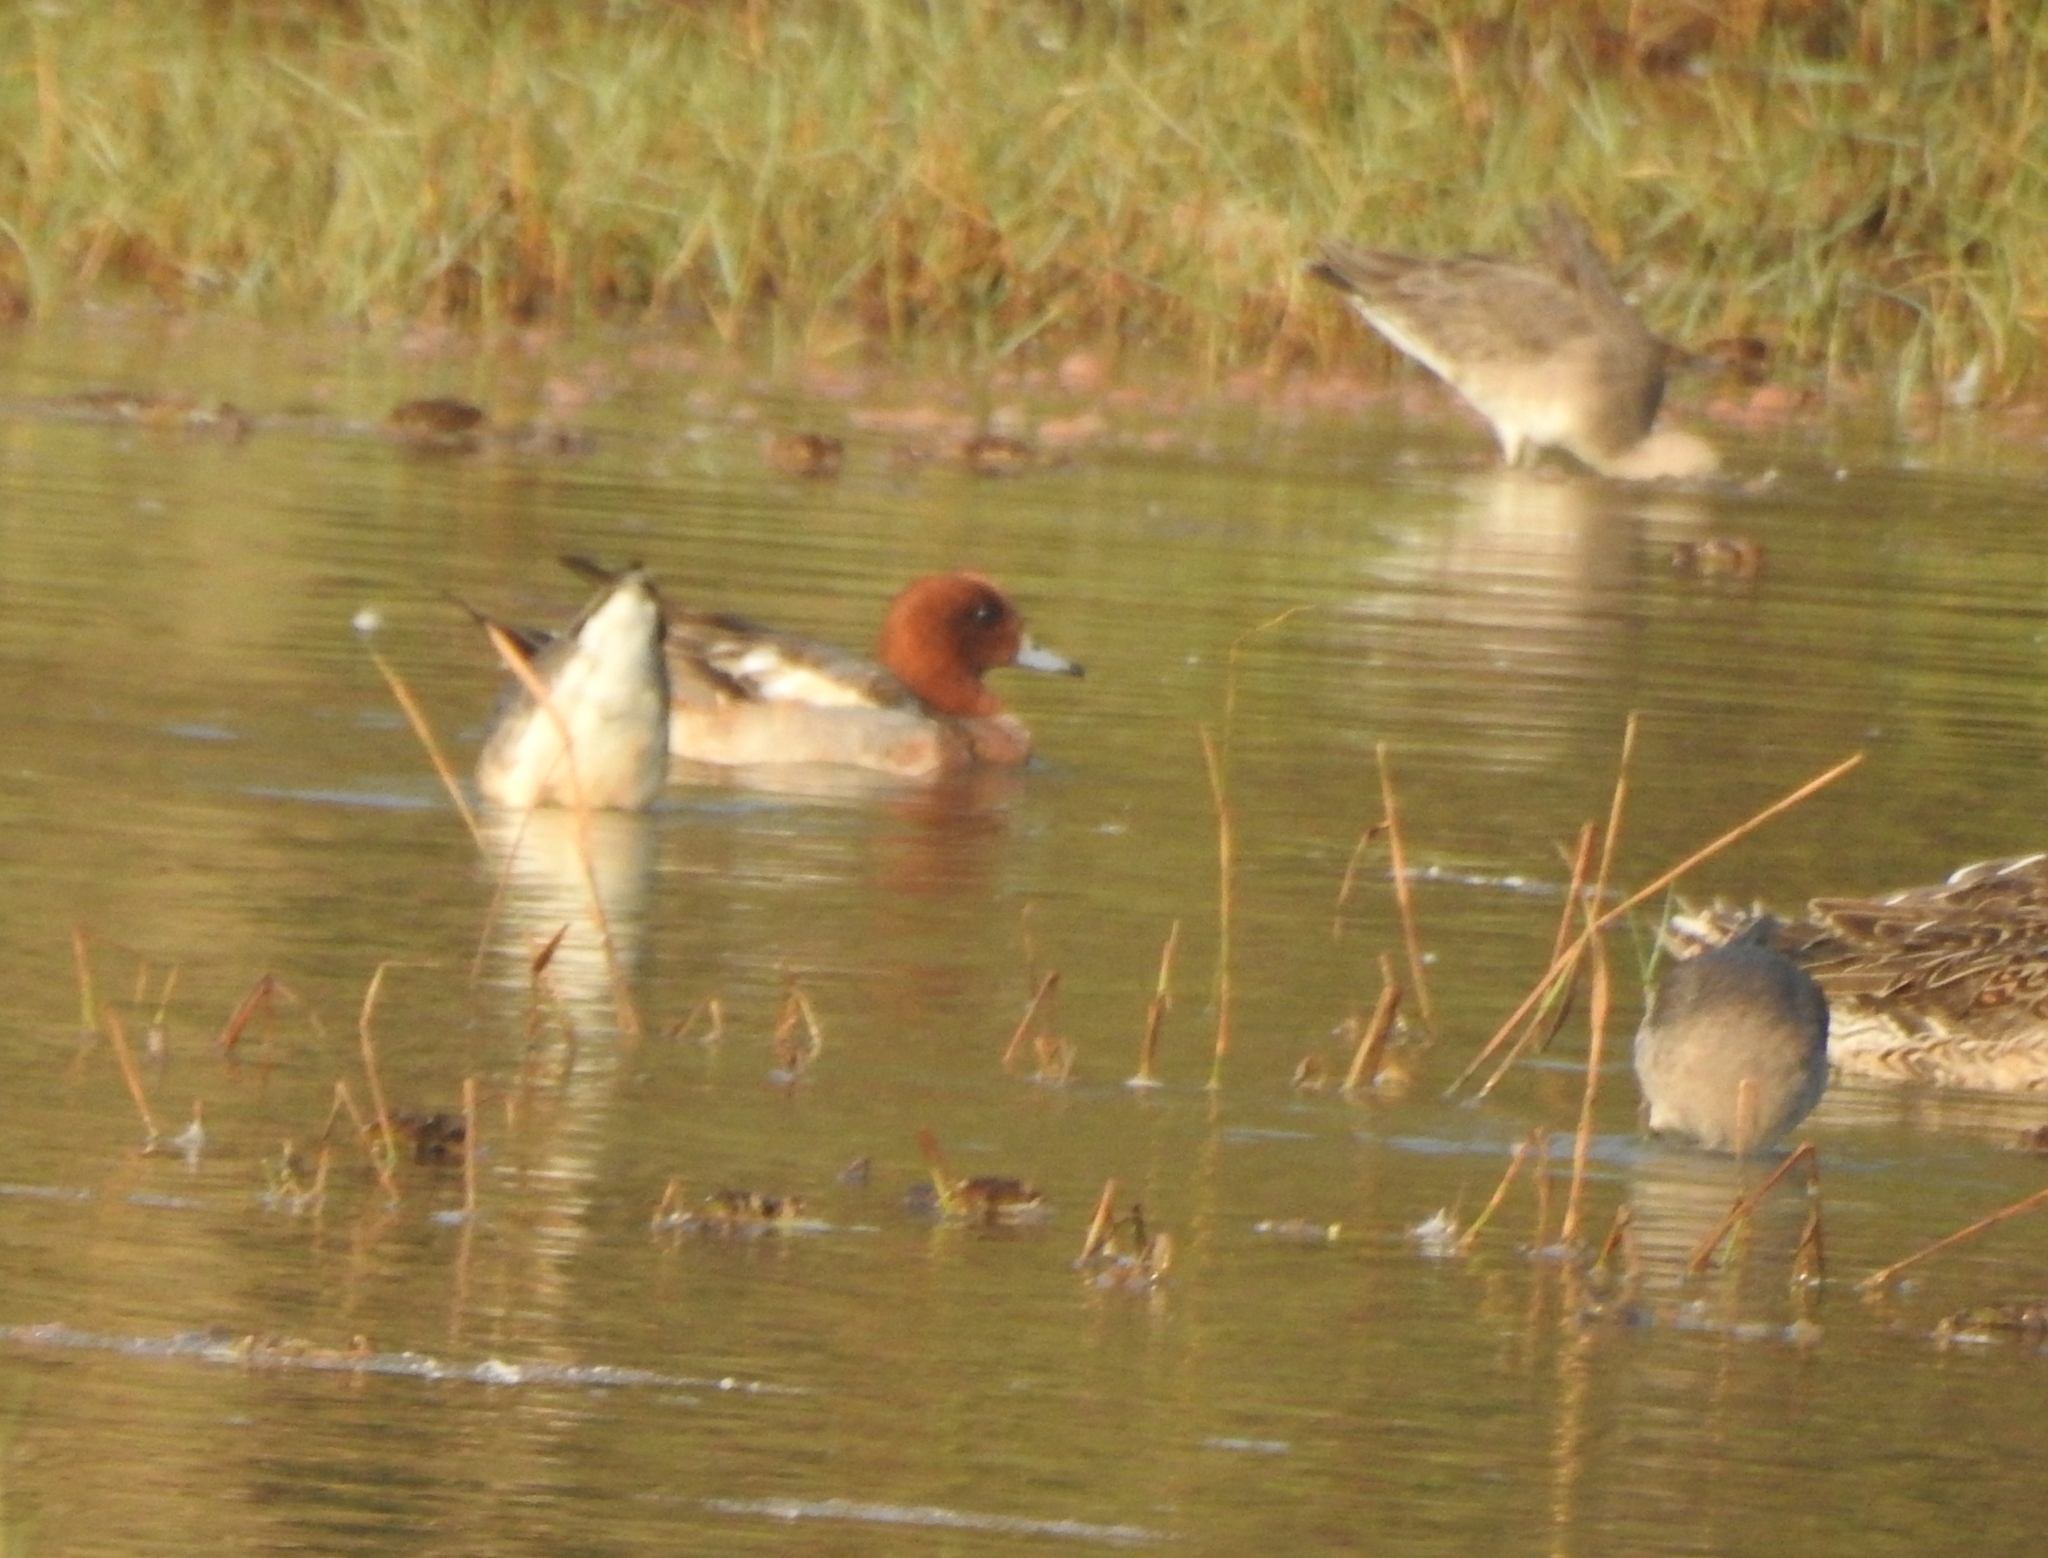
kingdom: Animalia
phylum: Chordata
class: Aves
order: Charadriiformes
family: Scolopacidae
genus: Limosa
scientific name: Limosa limosa
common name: Black-tailed godwit
